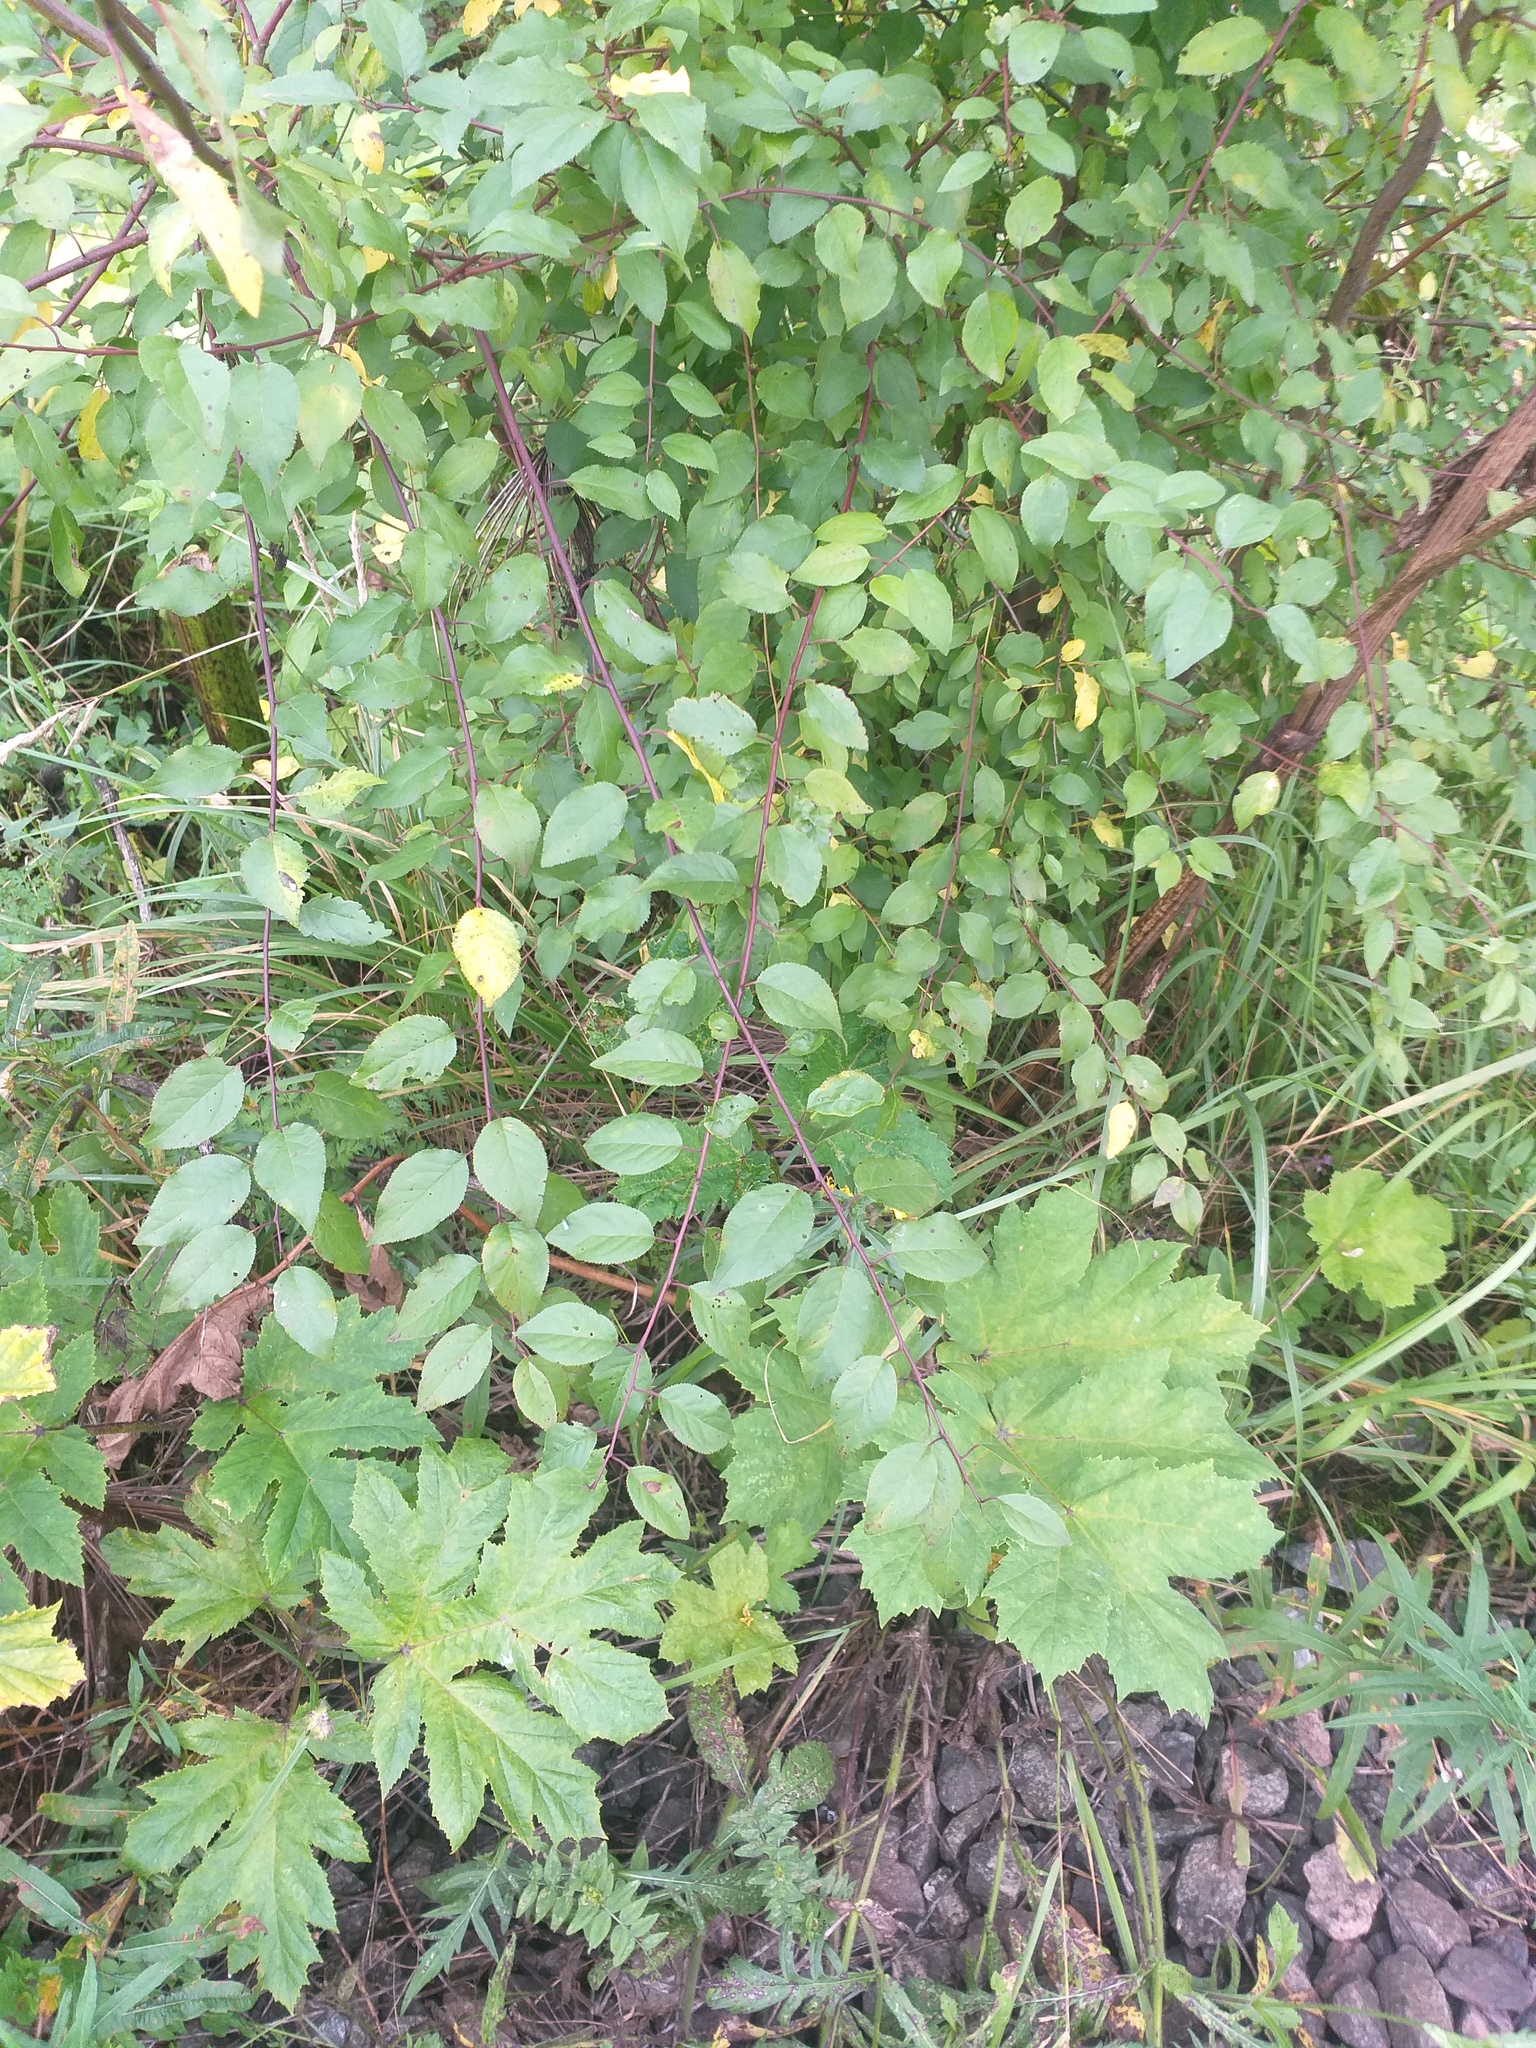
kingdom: Plantae
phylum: Tracheophyta
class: Magnoliopsida
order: Rosales
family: Rosaceae
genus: Prunus
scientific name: Prunus cerasifera
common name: Cherry plum
